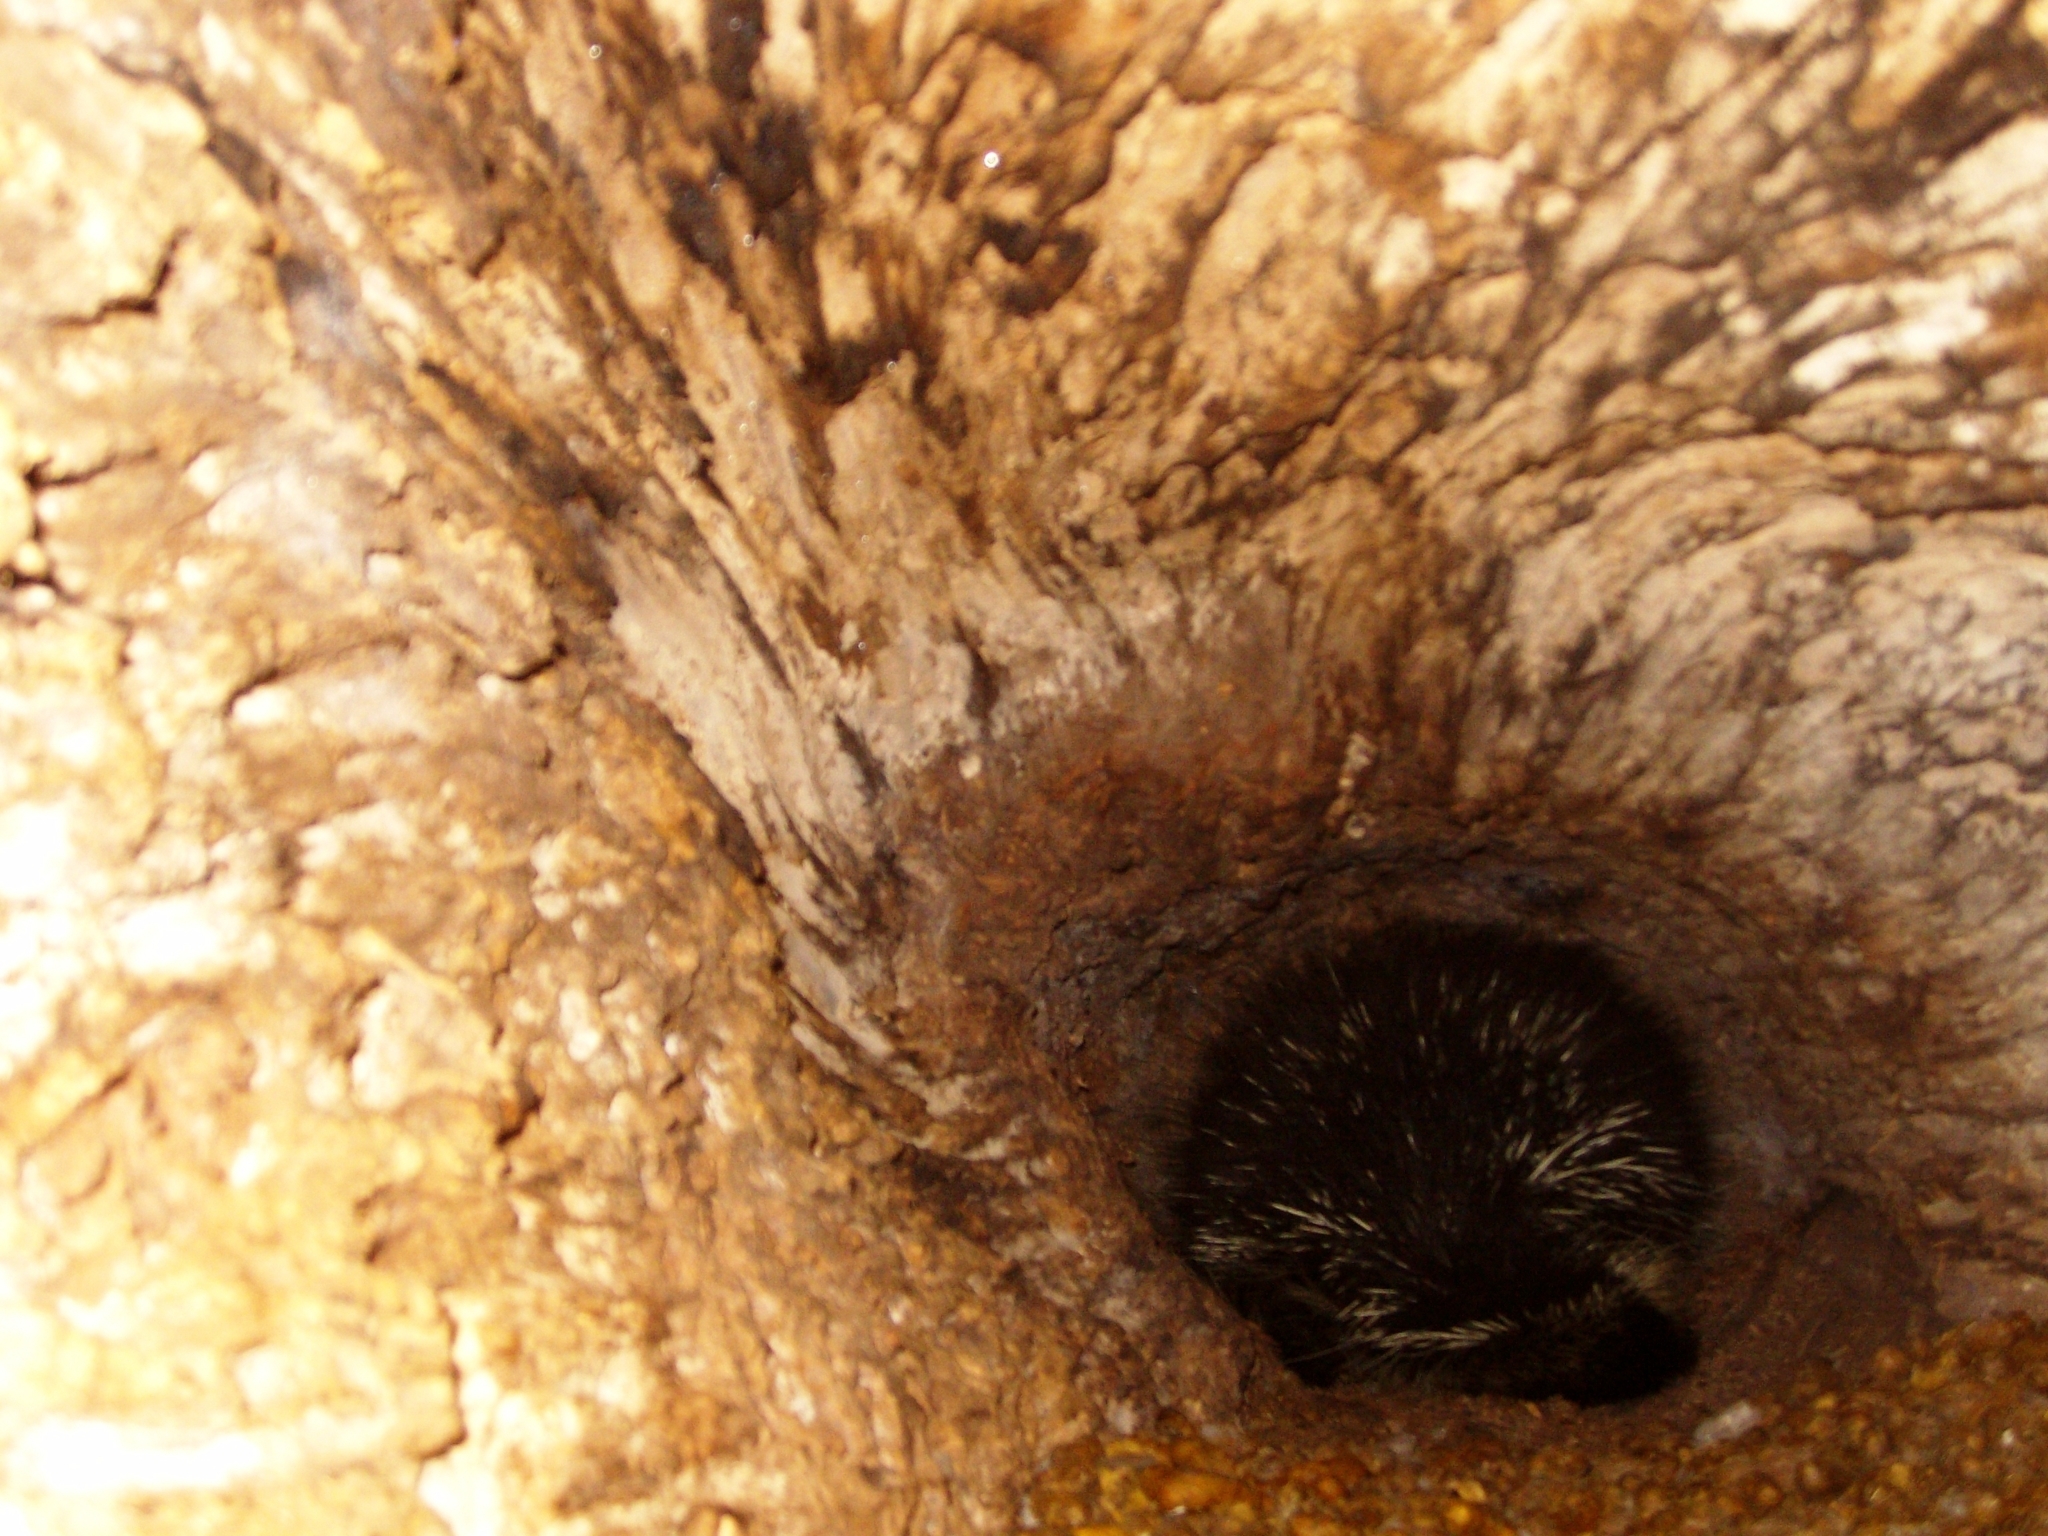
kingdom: Animalia
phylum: Chordata
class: Mammalia
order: Rodentia
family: Erethizontidae
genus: Erethizon
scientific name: Erethizon dorsatus
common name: North american porcupine
